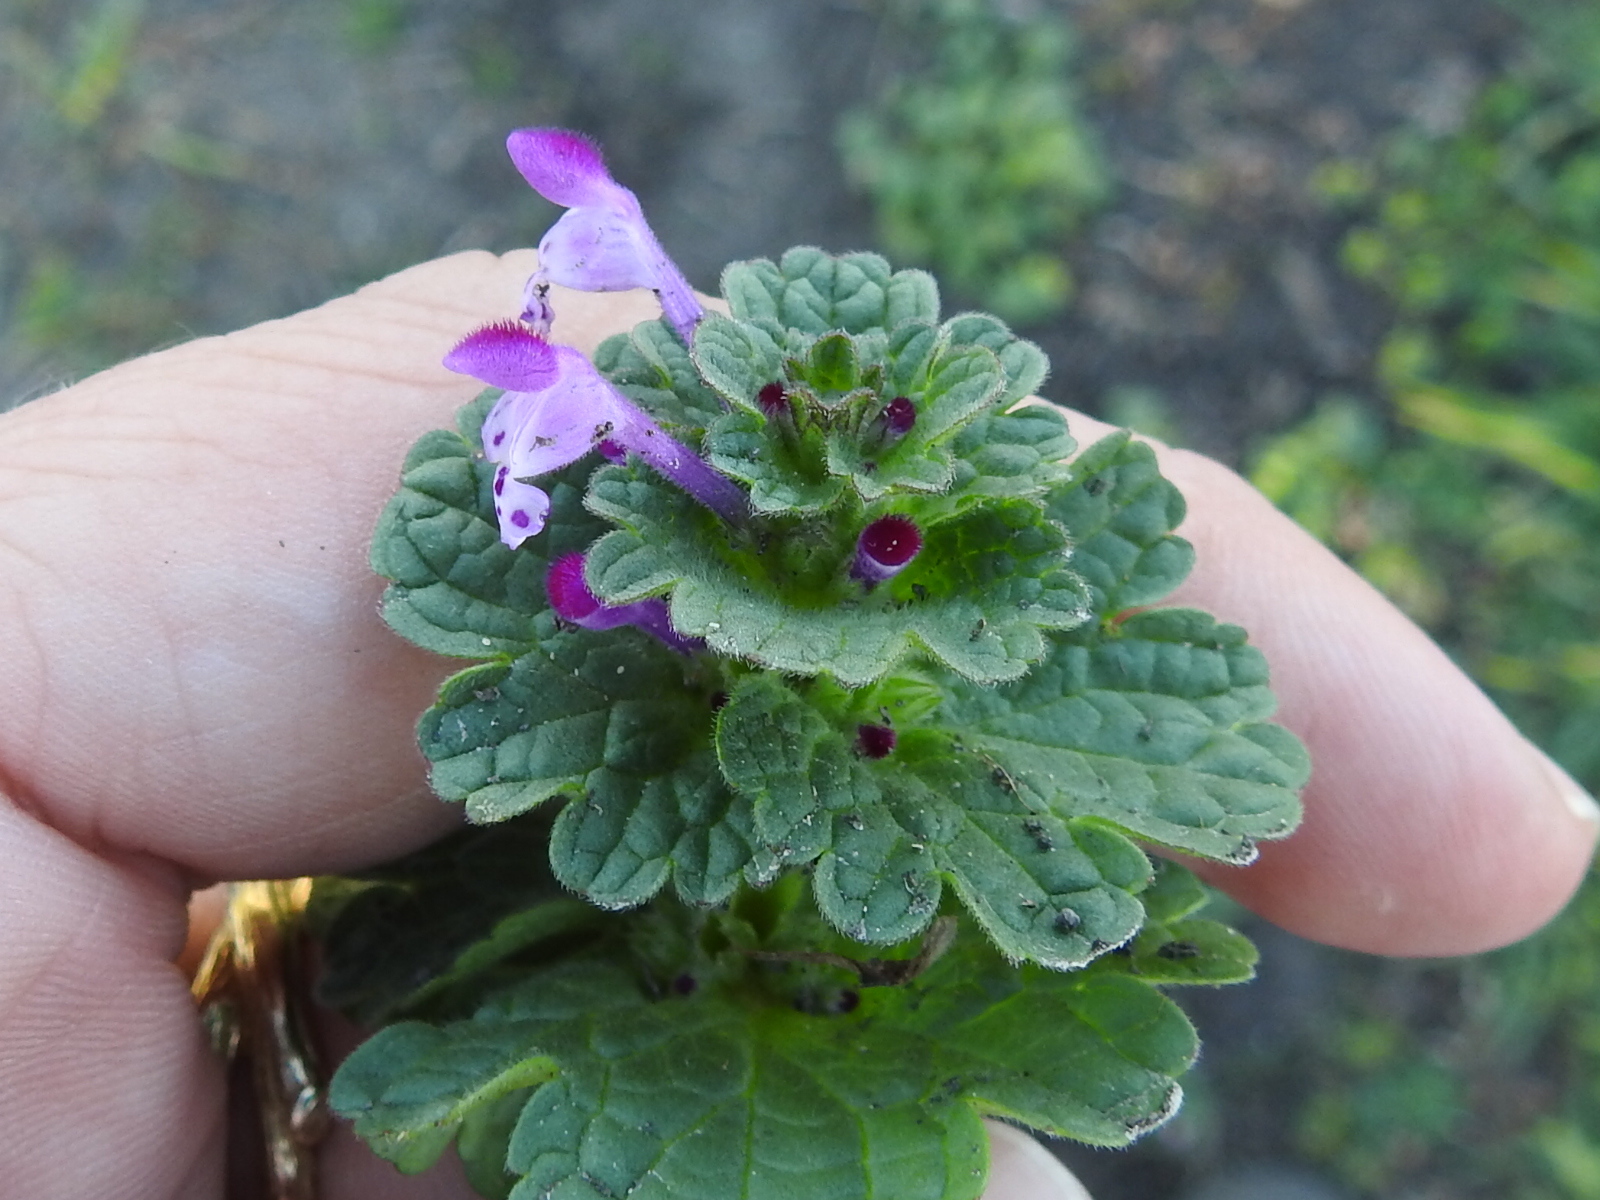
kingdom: Plantae
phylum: Tracheophyta
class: Magnoliopsida
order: Lamiales
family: Lamiaceae
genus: Lamium
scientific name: Lamium amplexicaule
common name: Henbit dead-nettle
